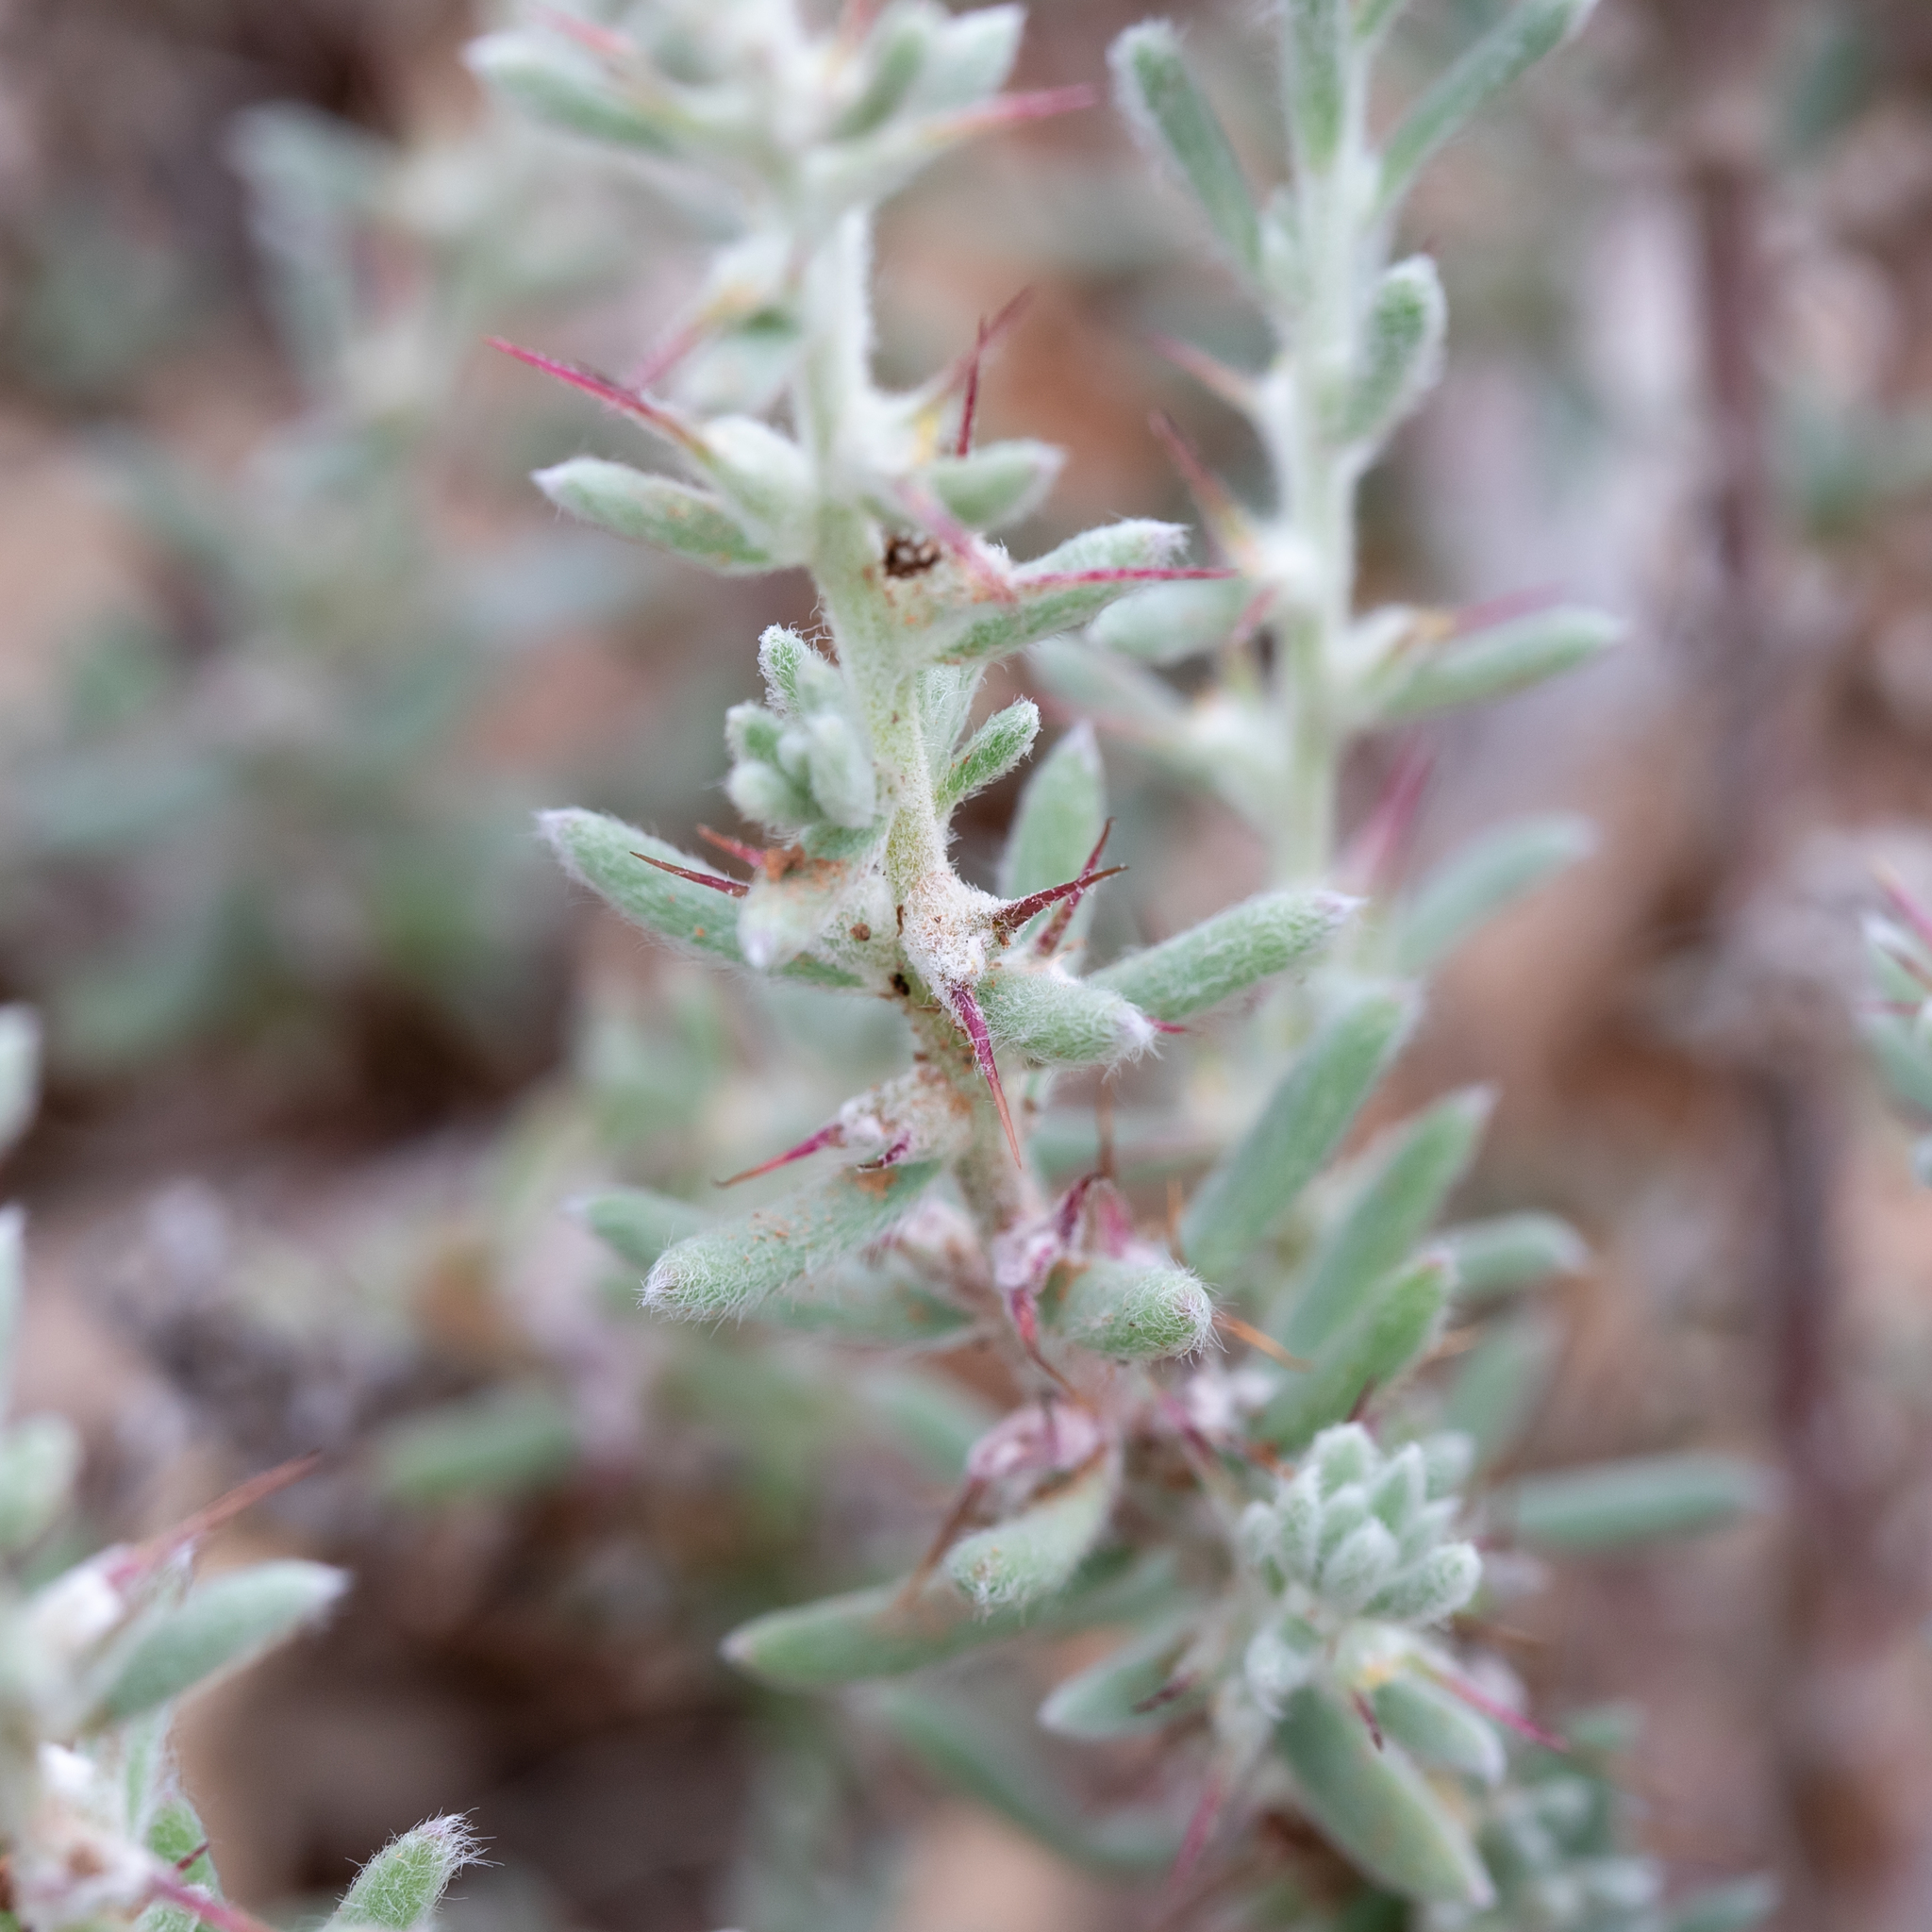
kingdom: Plantae
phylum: Tracheophyta
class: Magnoliopsida
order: Caryophyllales
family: Amaranthaceae
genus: Sclerolaena
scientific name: Sclerolaena obliquicuspis
